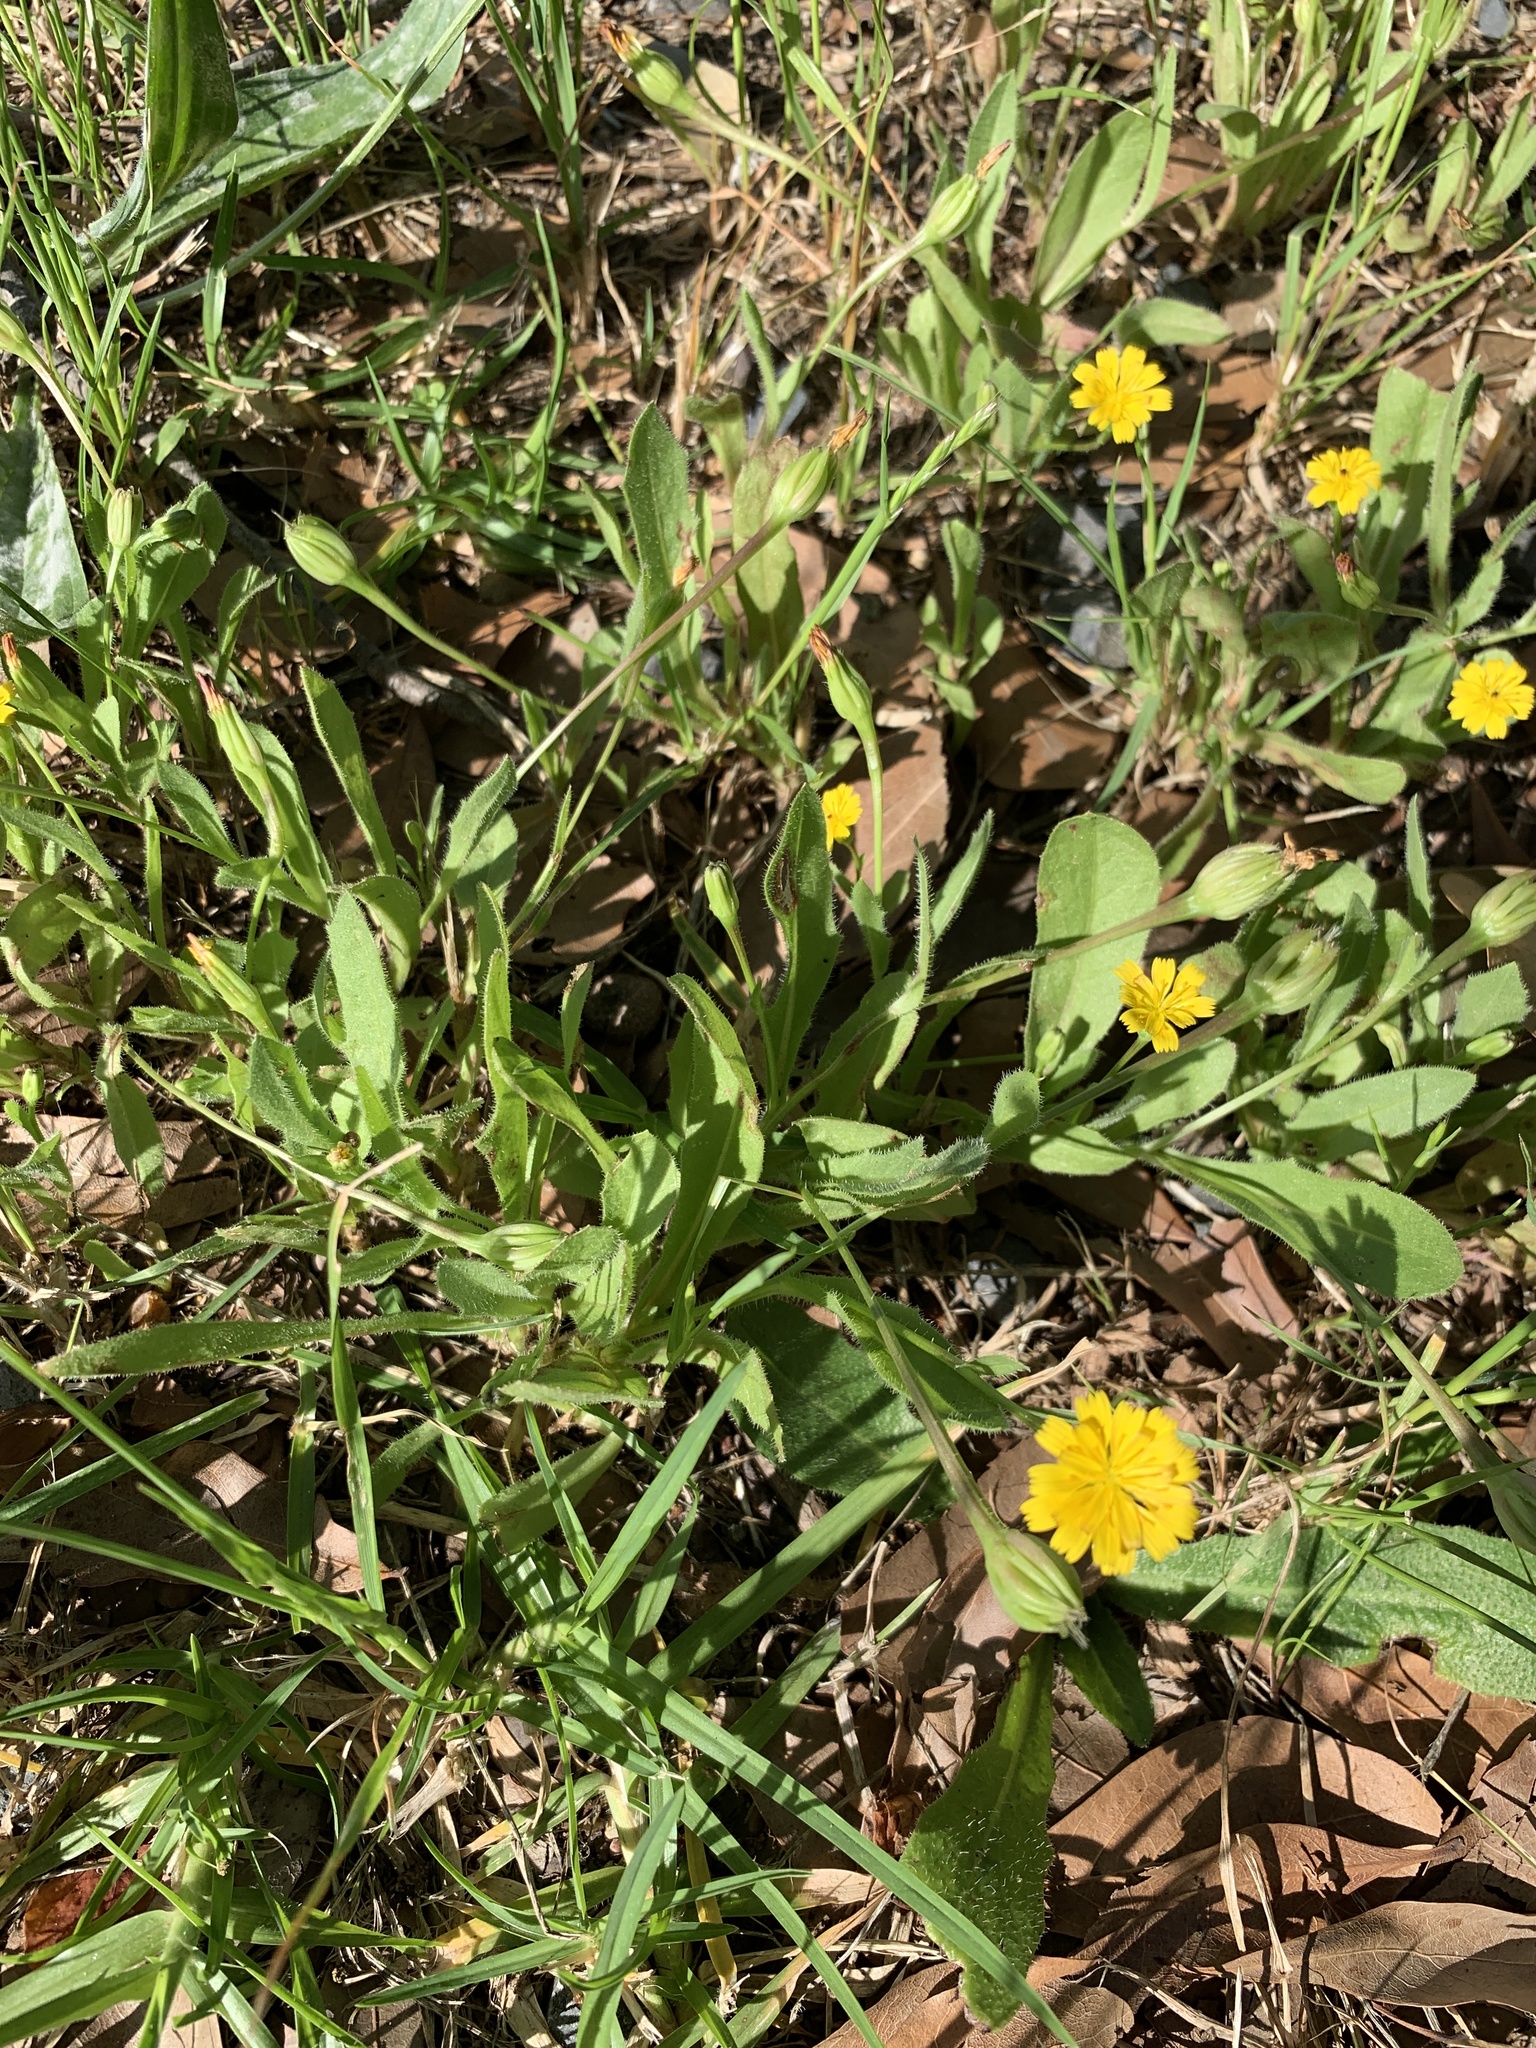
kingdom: Plantae
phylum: Tracheophyta
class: Magnoliopsida
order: Asterales
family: Asteraceae
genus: Hedypnois
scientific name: Hedypnois rhagadioloides
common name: Cretan weed
